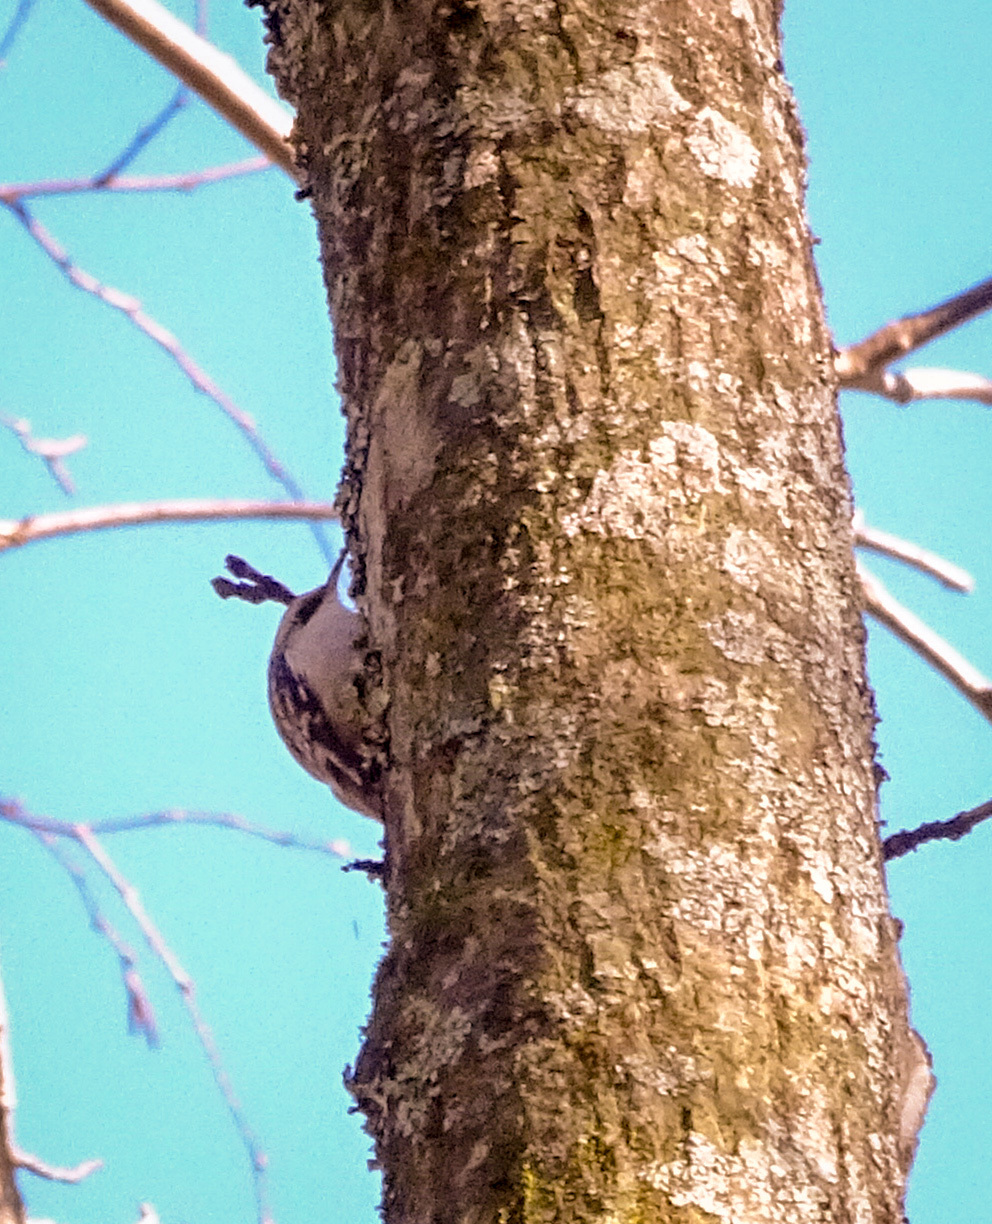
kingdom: Animalia
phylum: Chordata
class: Aves
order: Passeriformes
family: Certhiidae
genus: Certhia
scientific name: Certhia americana
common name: Brown creeper
